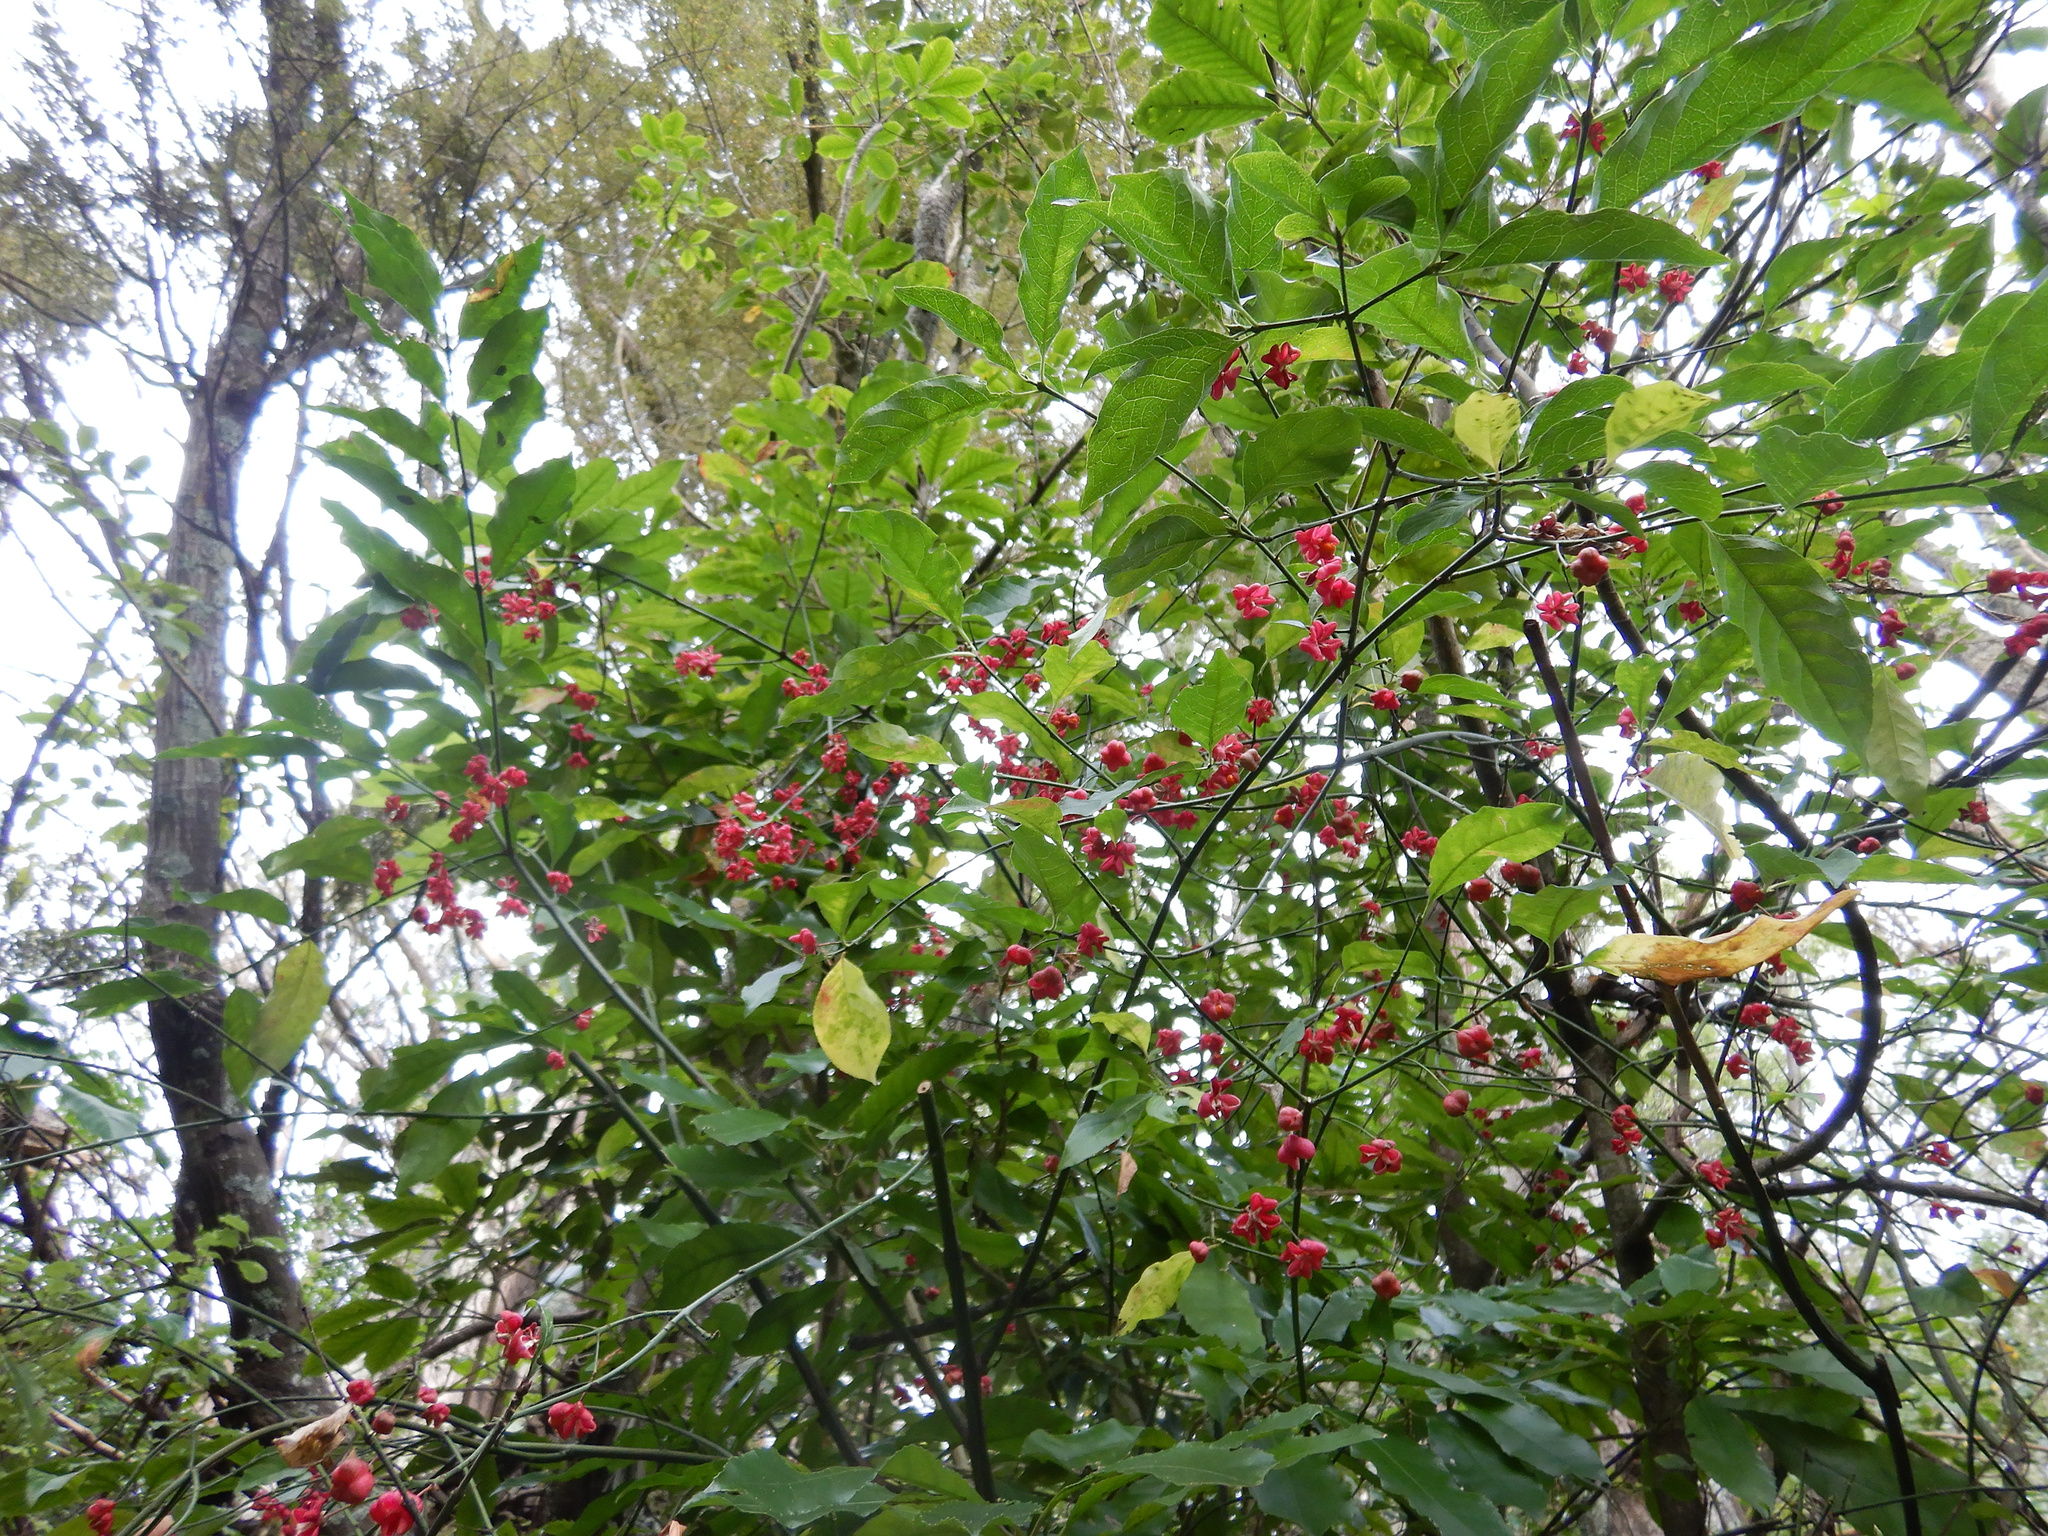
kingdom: Plantae
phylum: Tracheophyta
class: Magnoliopsida
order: Celastrales
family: Celastraceae
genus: Euonymus
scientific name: Euonymus europaeus
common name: Spindle
